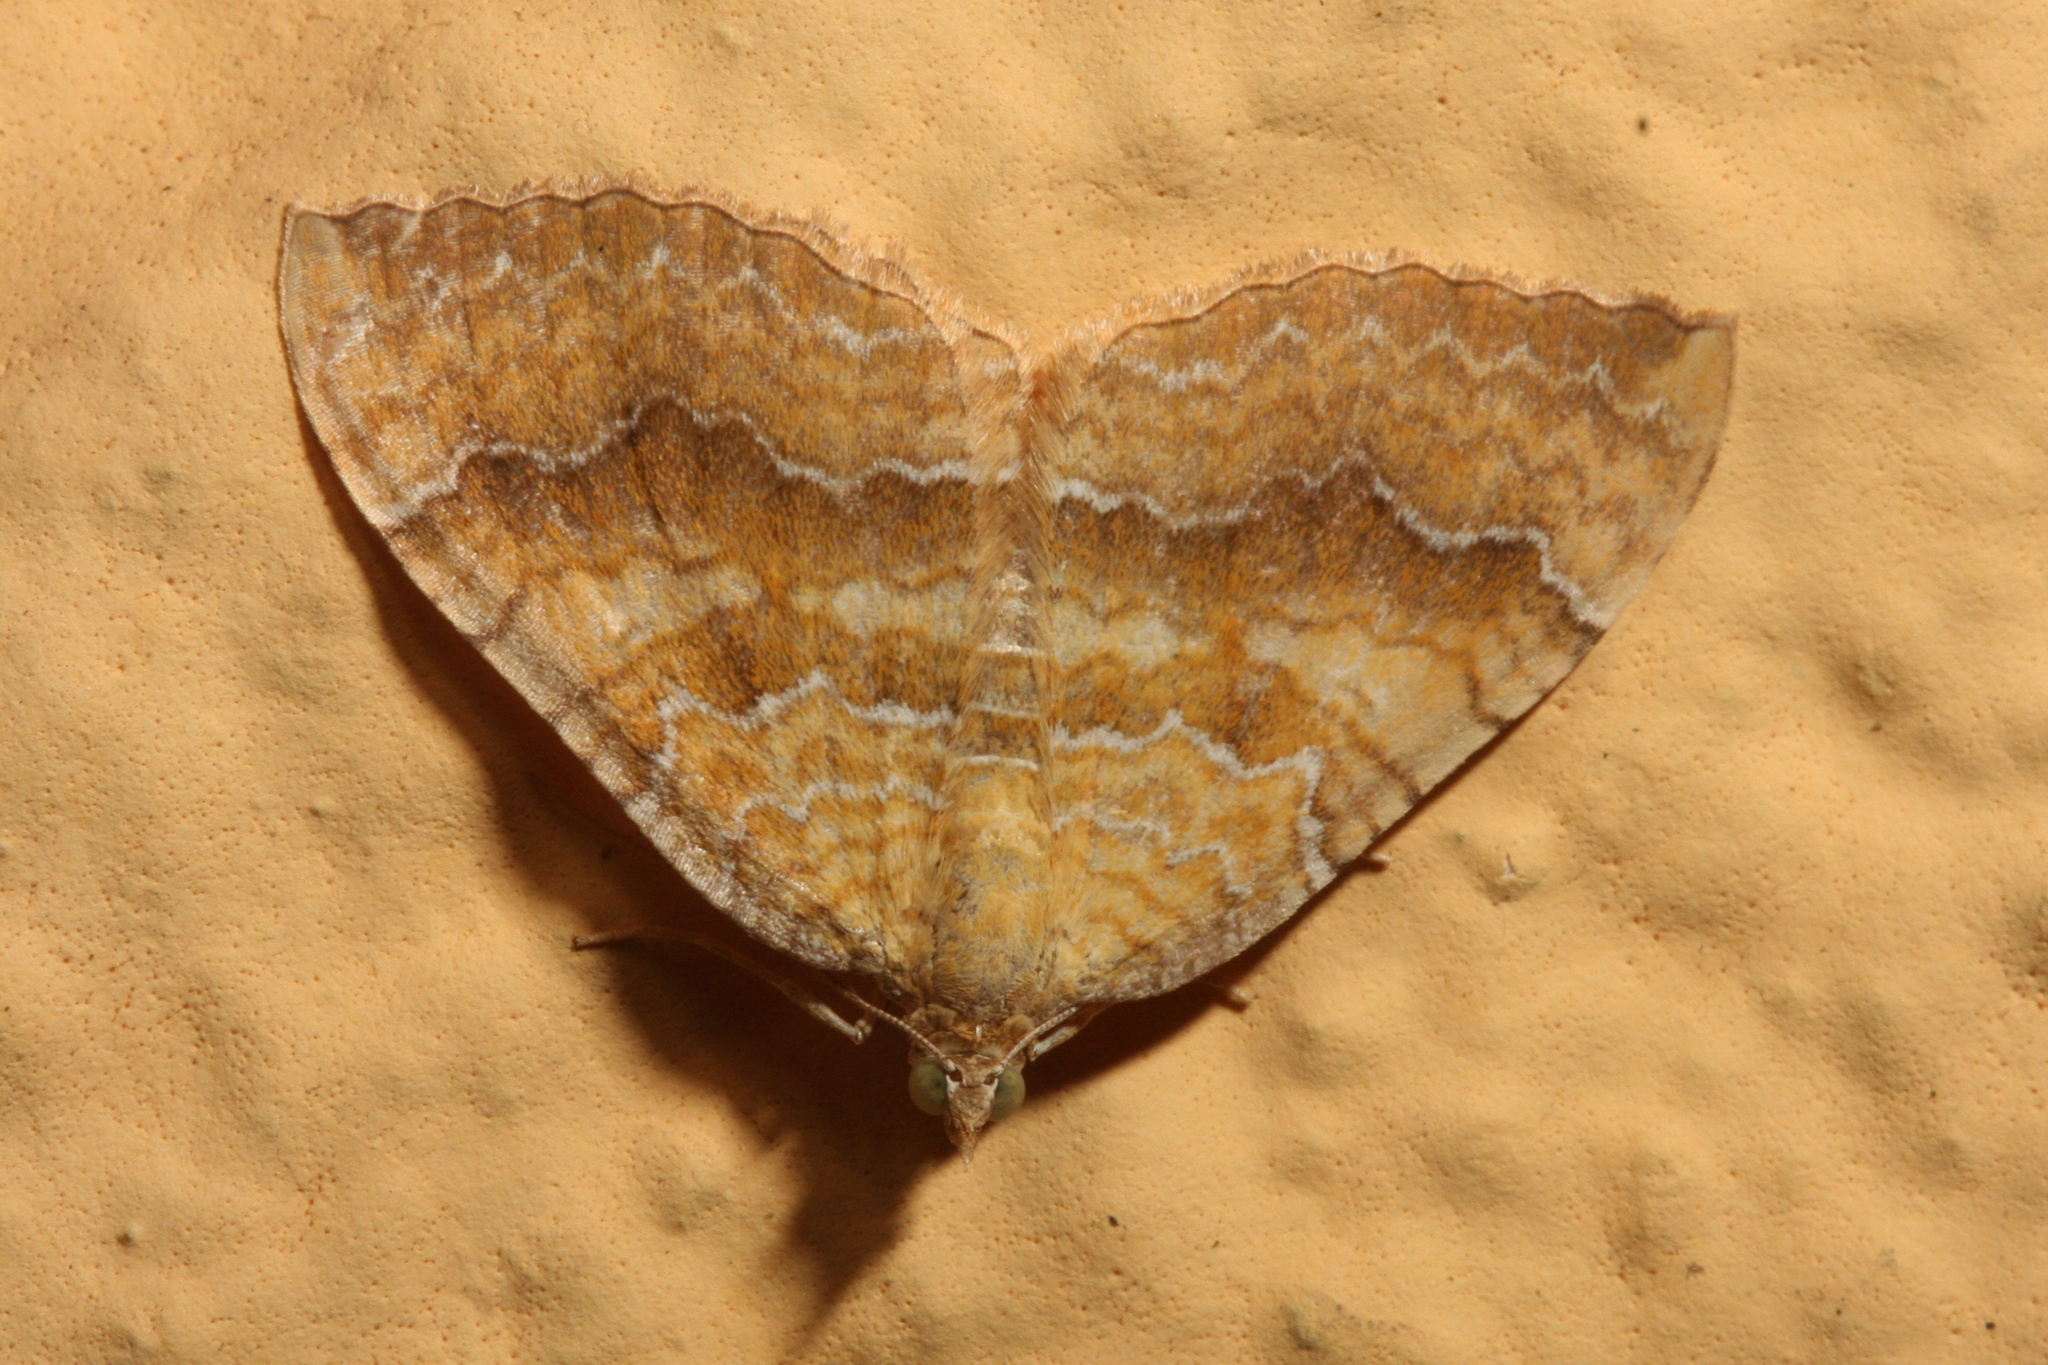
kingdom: Animalia
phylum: Arthropoda
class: Insecta
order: Lepidoptera
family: Geometridae
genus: Camptogramma
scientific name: Camptogramma bilineata
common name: Yellow shell
